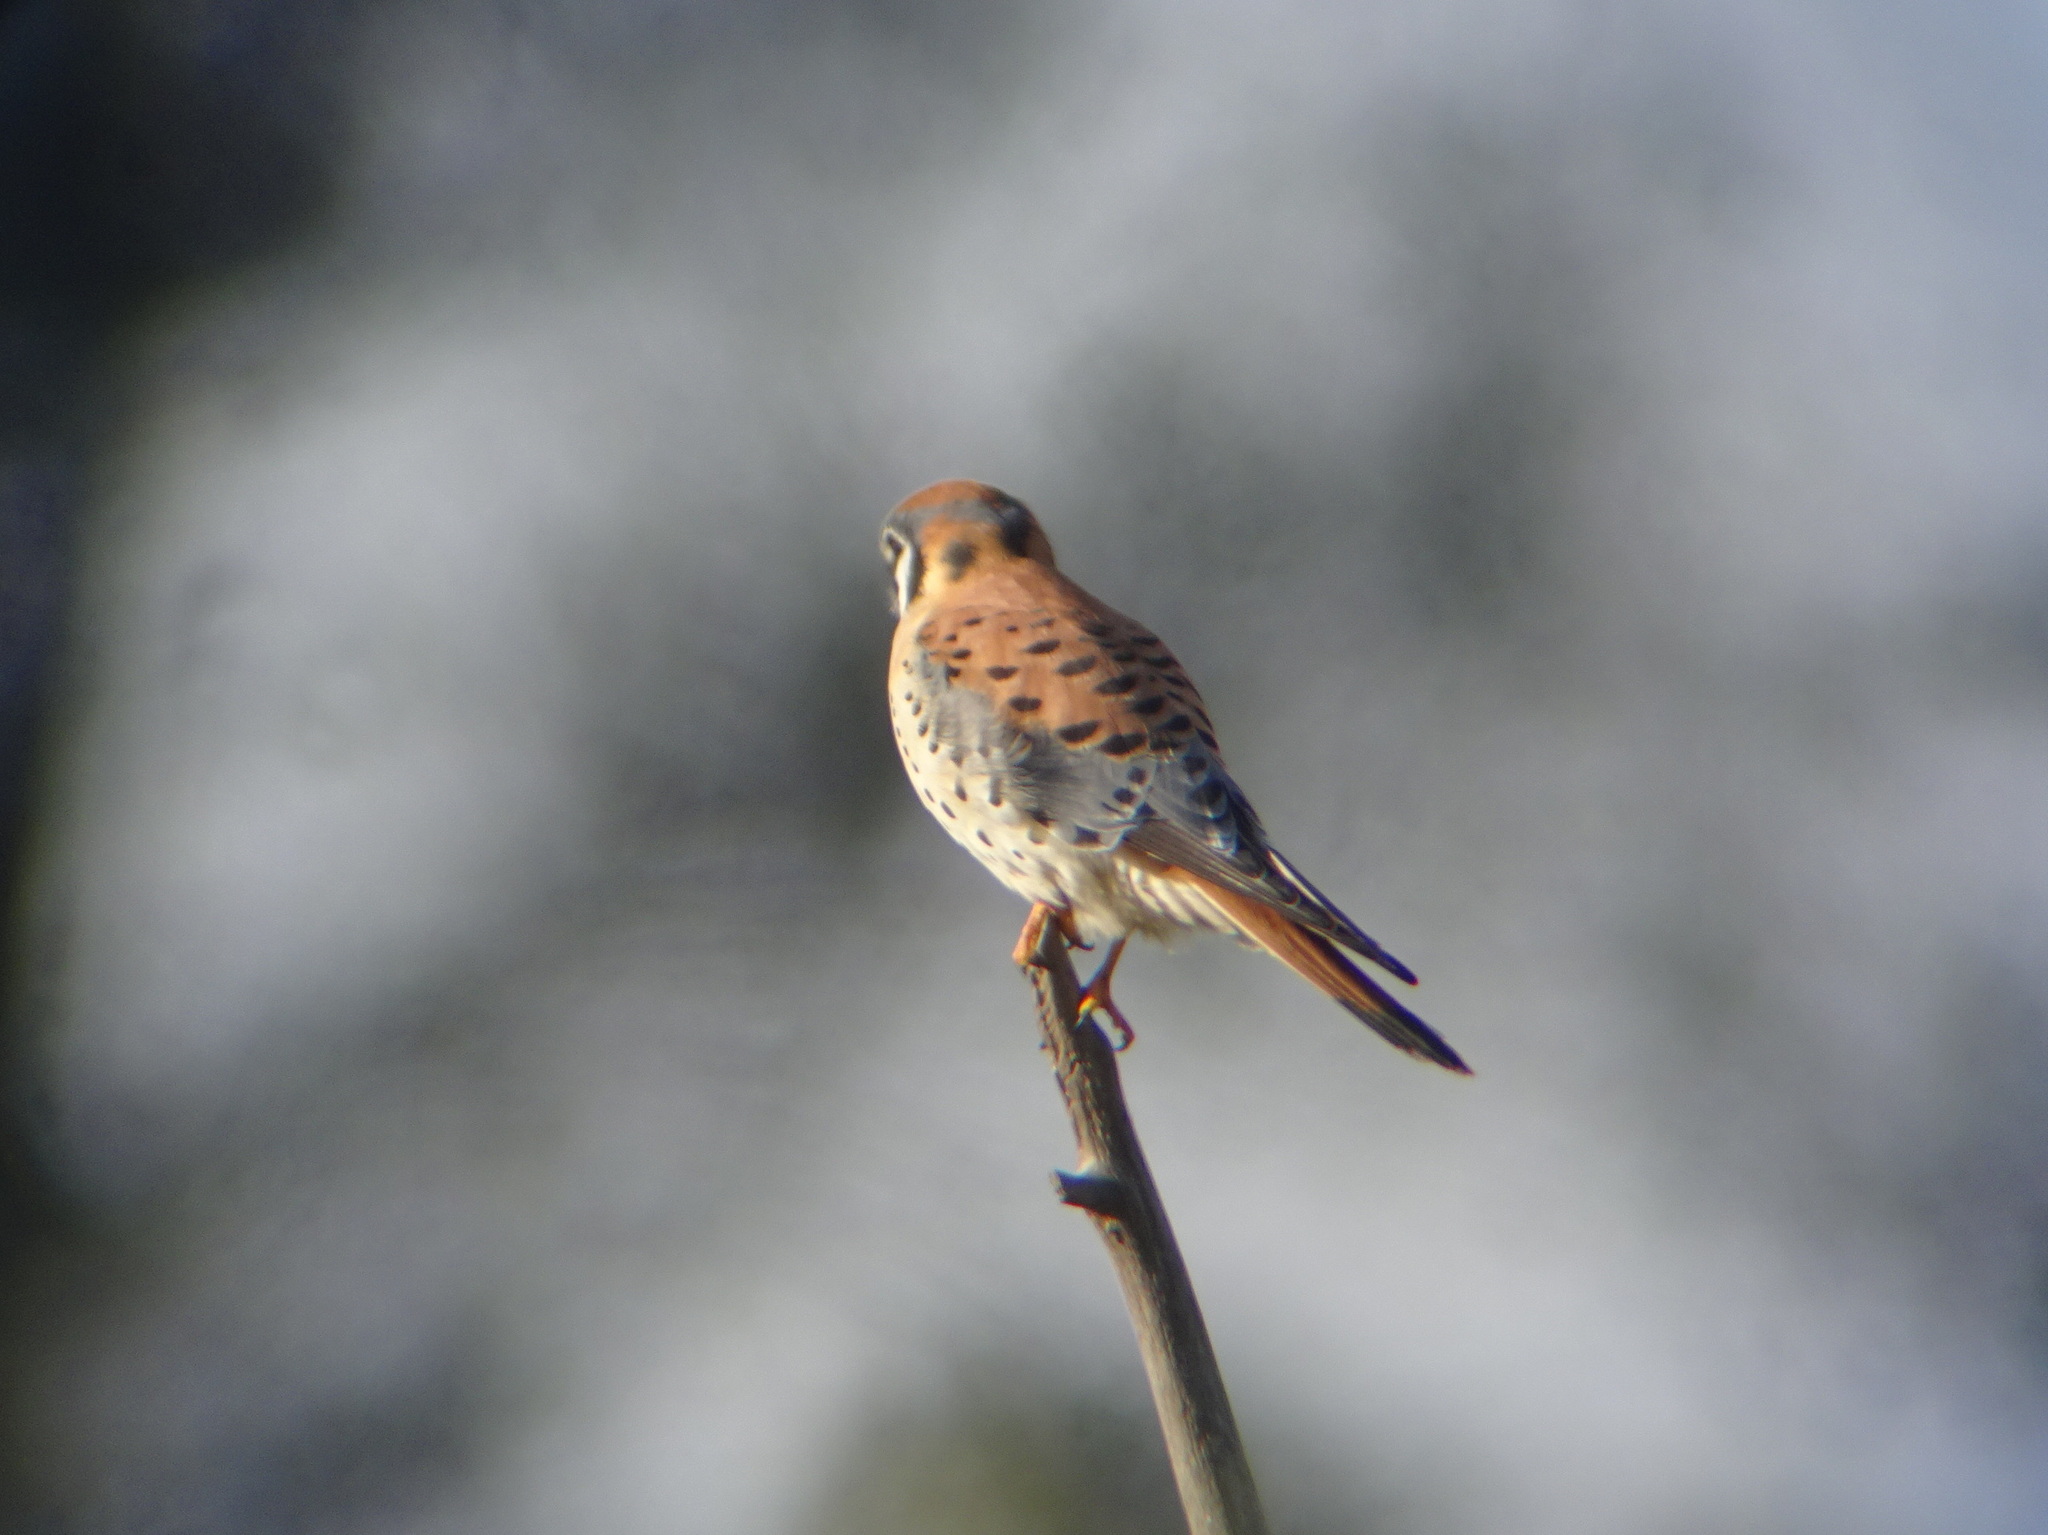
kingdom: Animalia
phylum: Chordata
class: Aves
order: Falconiformes
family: Falconidae
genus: Falco
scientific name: Falco sparverius
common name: American kestrel
